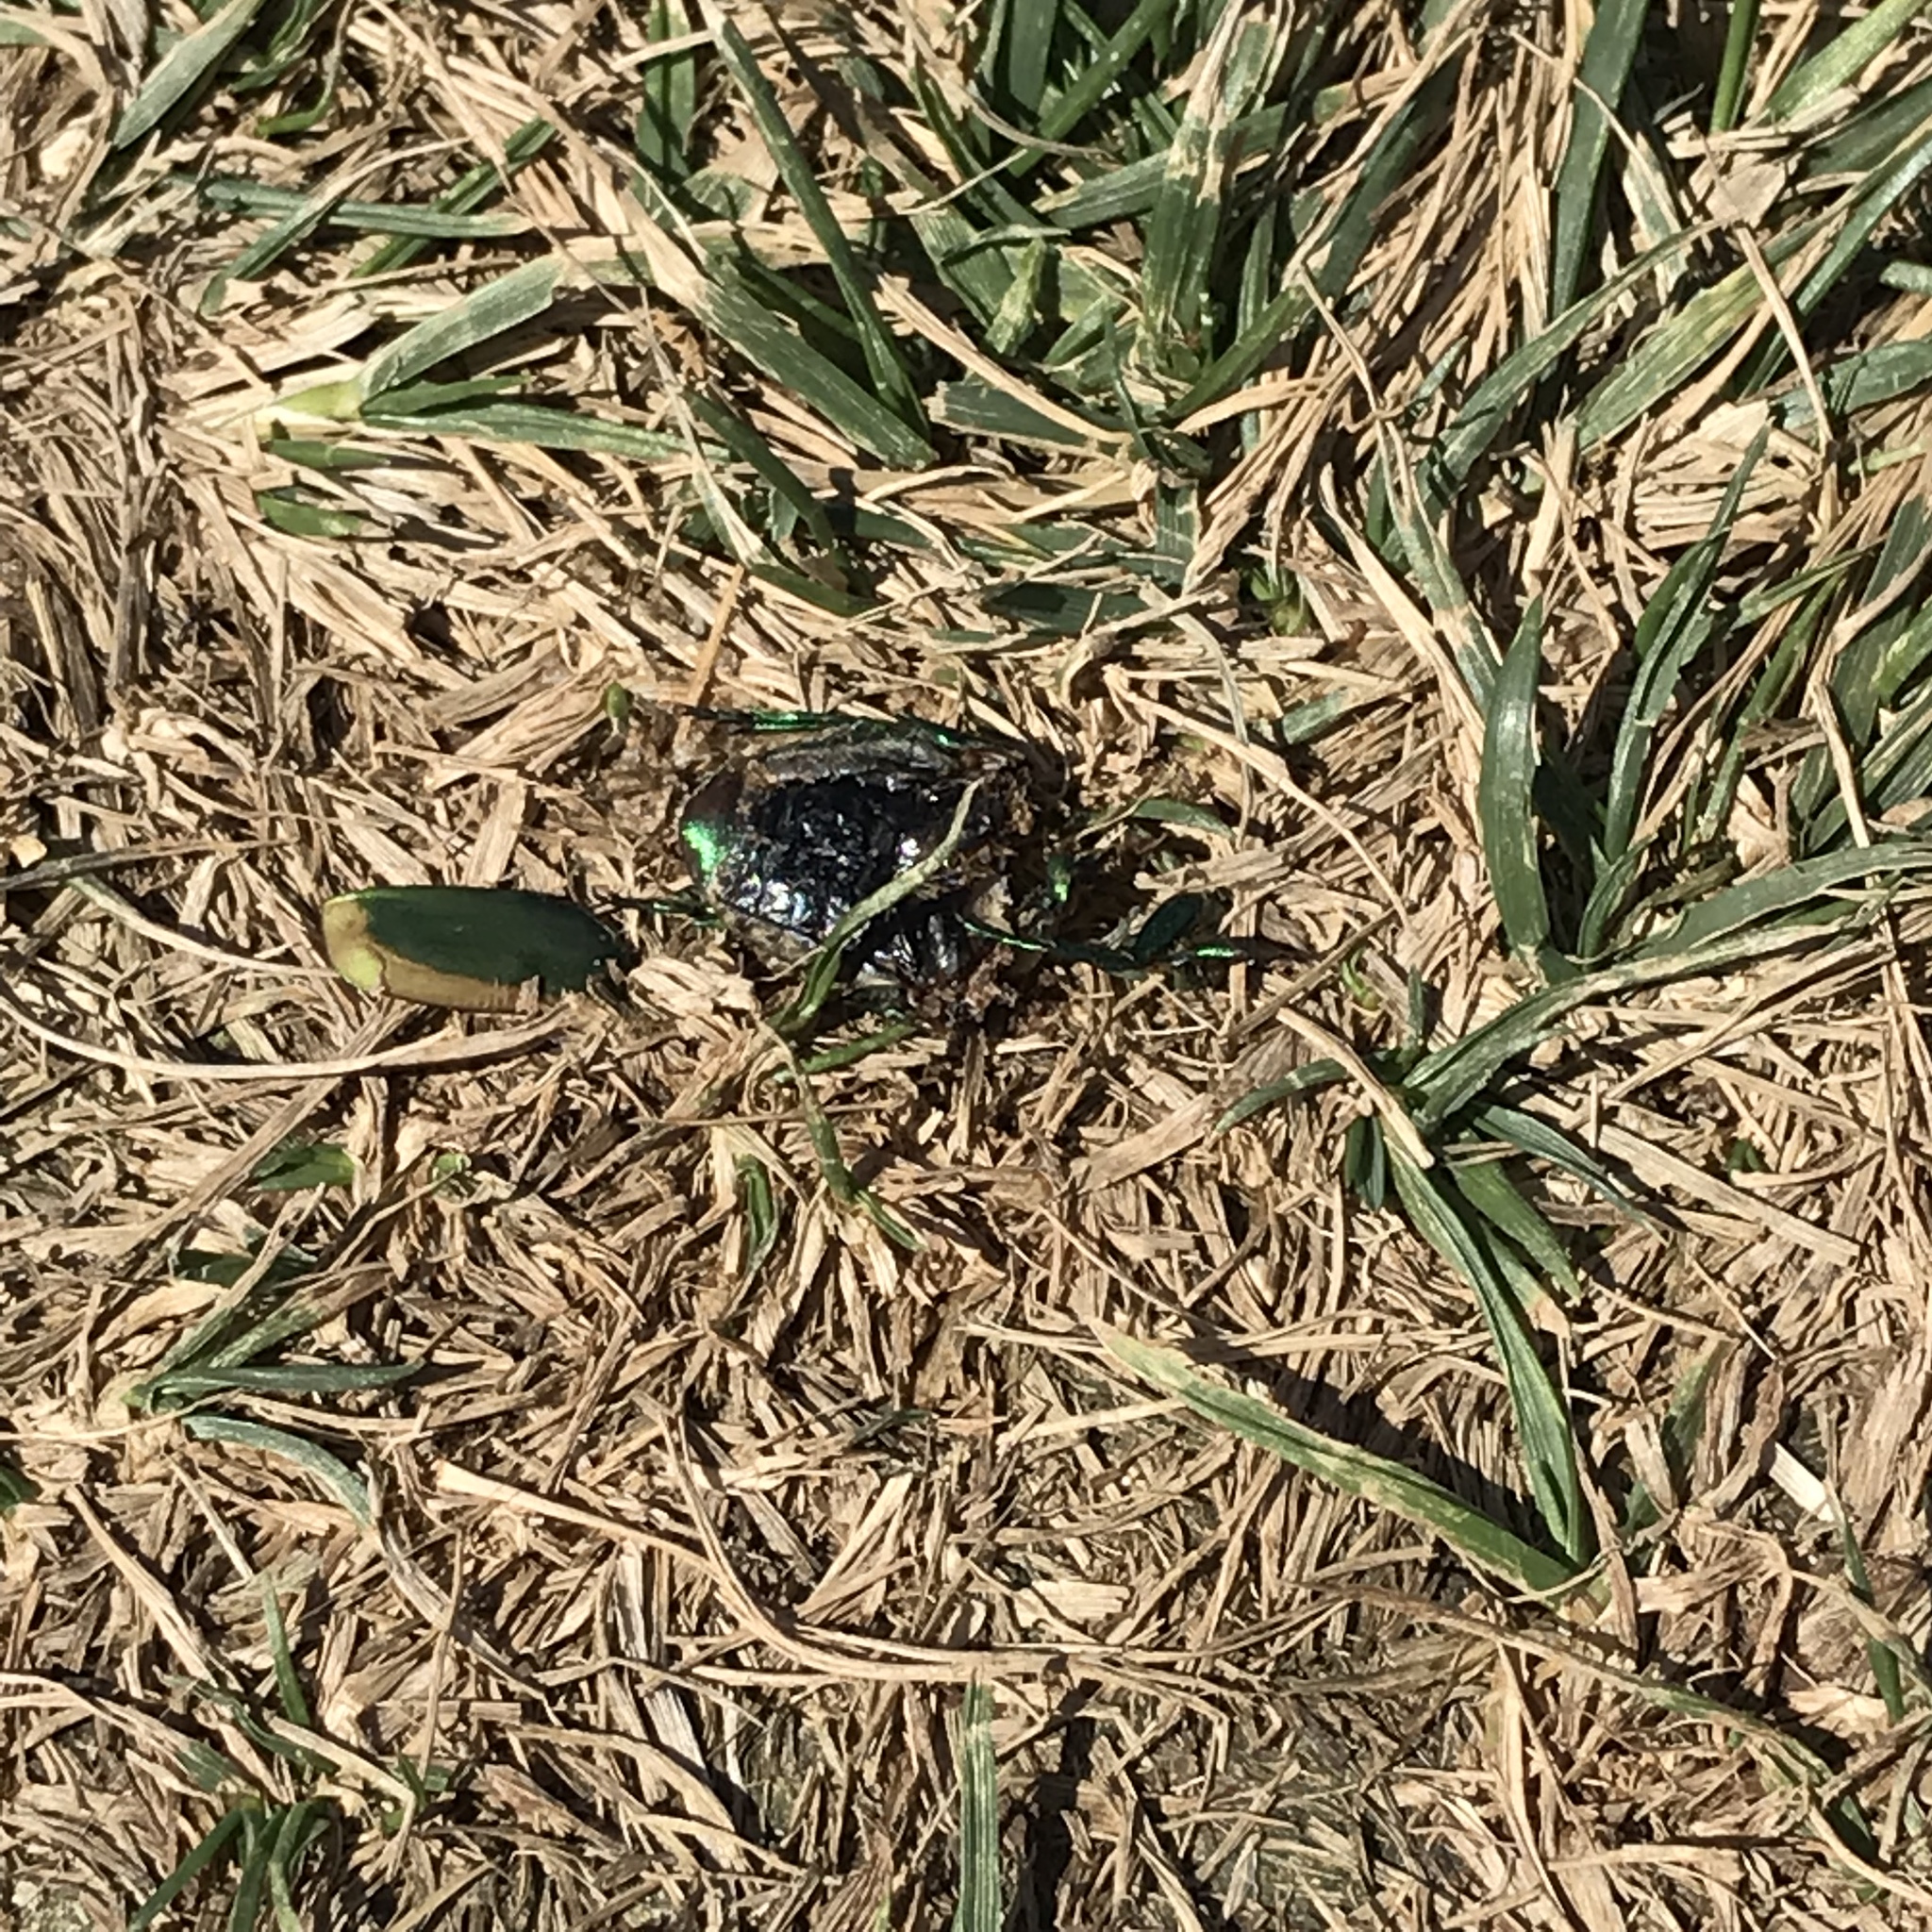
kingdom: Animalia
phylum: Arthropoda
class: Insecta
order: Coleoptera
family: Scarabaeidae
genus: Cotinis
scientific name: Cotinis mutabilis
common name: Figeater beetle
